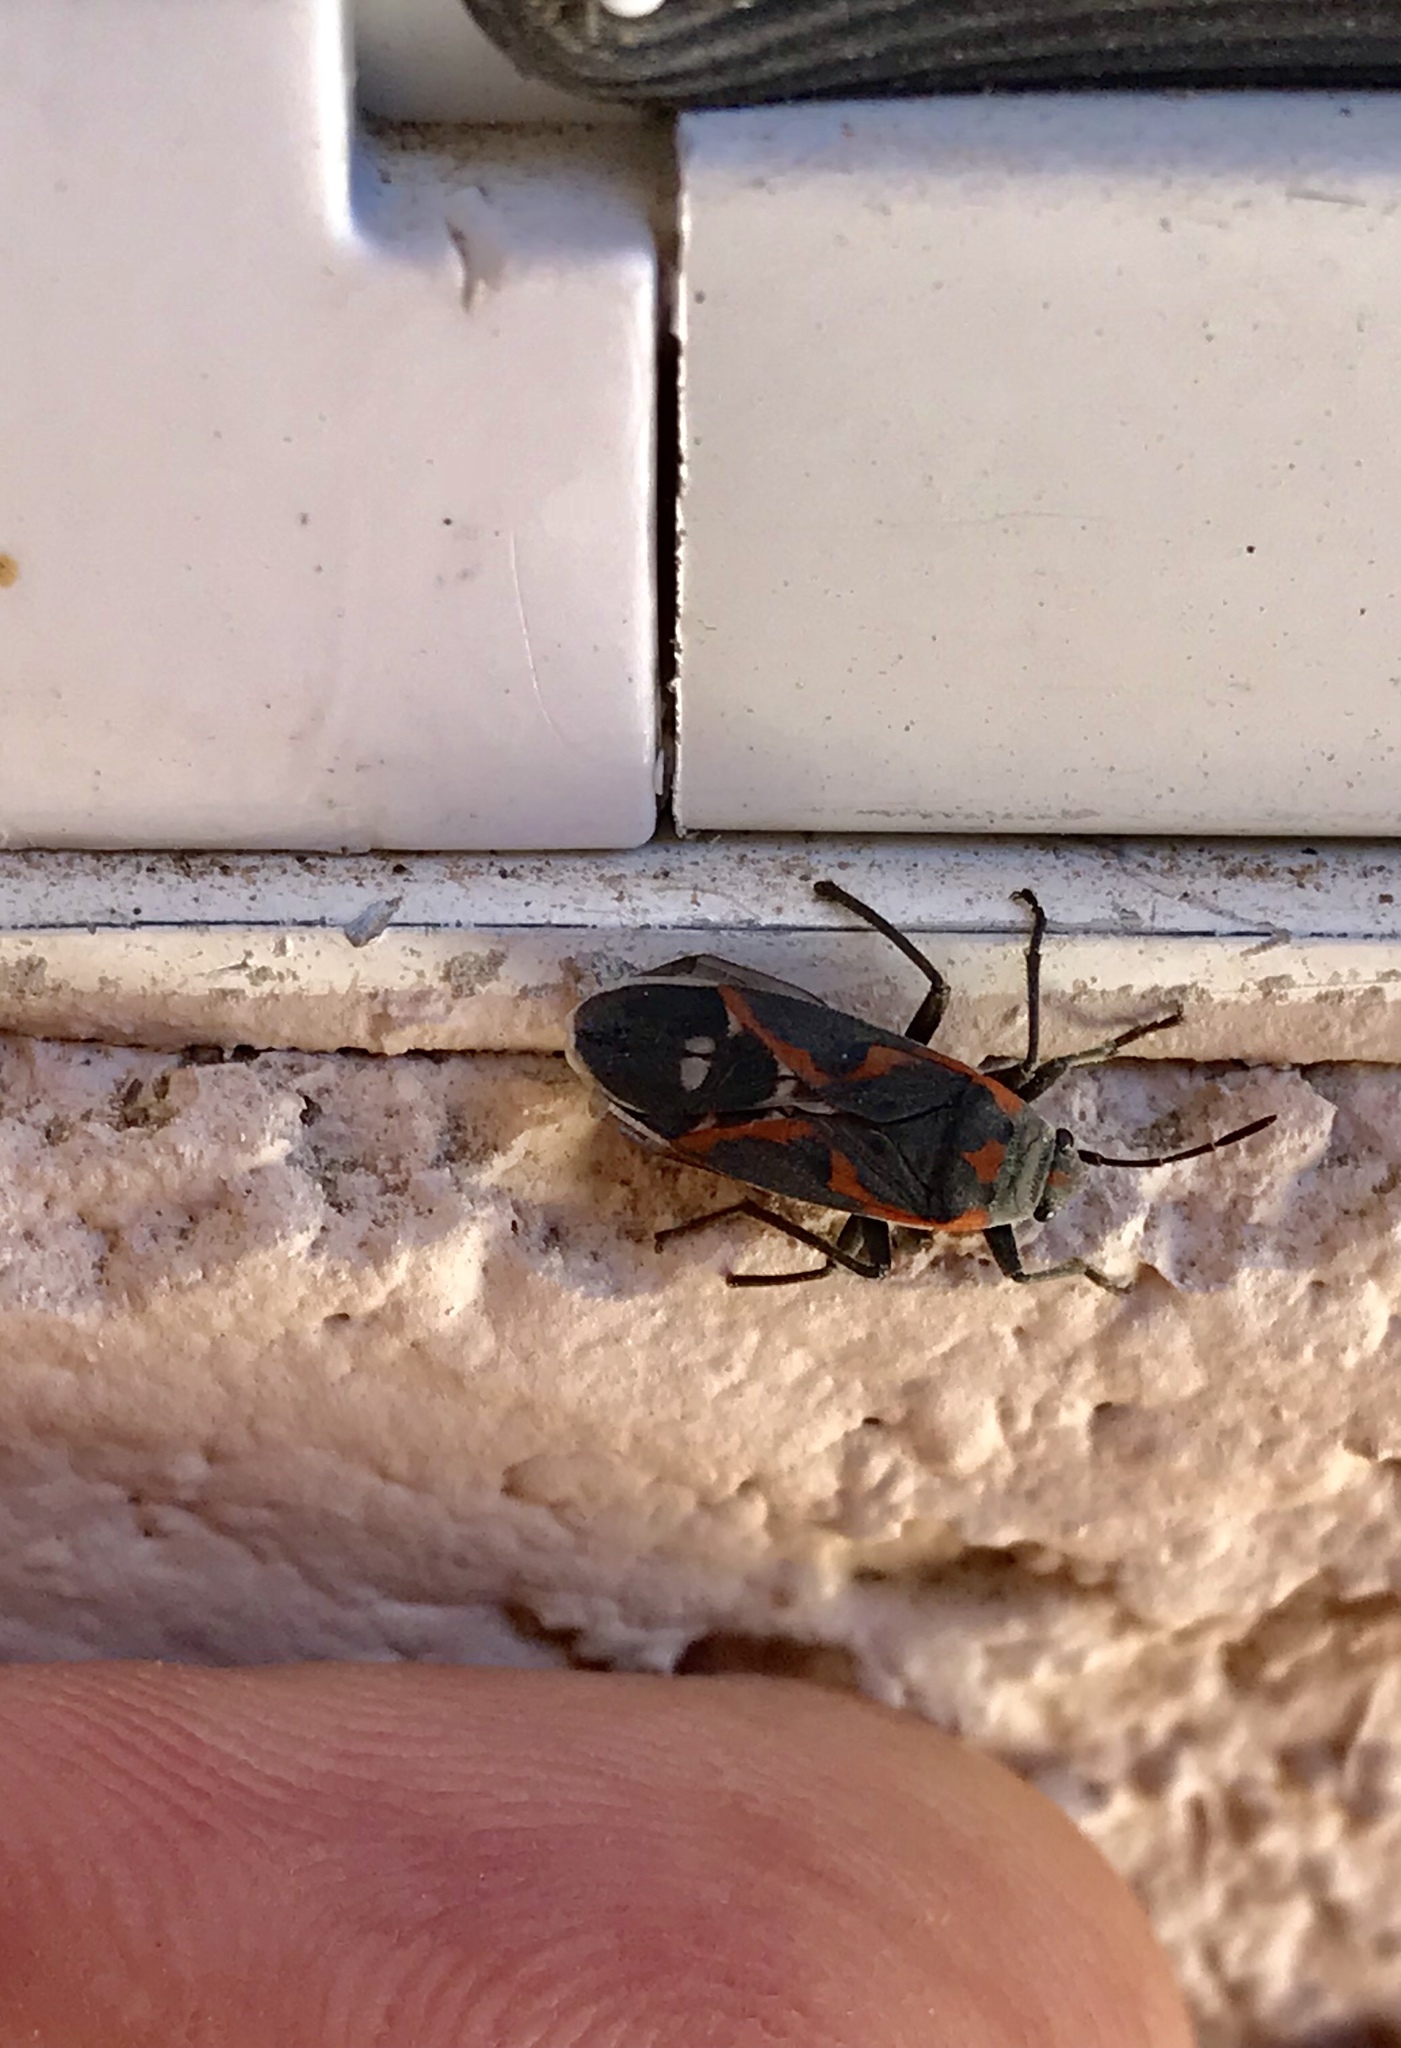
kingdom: Animalia
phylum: Arthropoda
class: Insecta
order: Hemiptera
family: Lygaeidae
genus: Lygaeus
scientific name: Lygaeus kalmii
